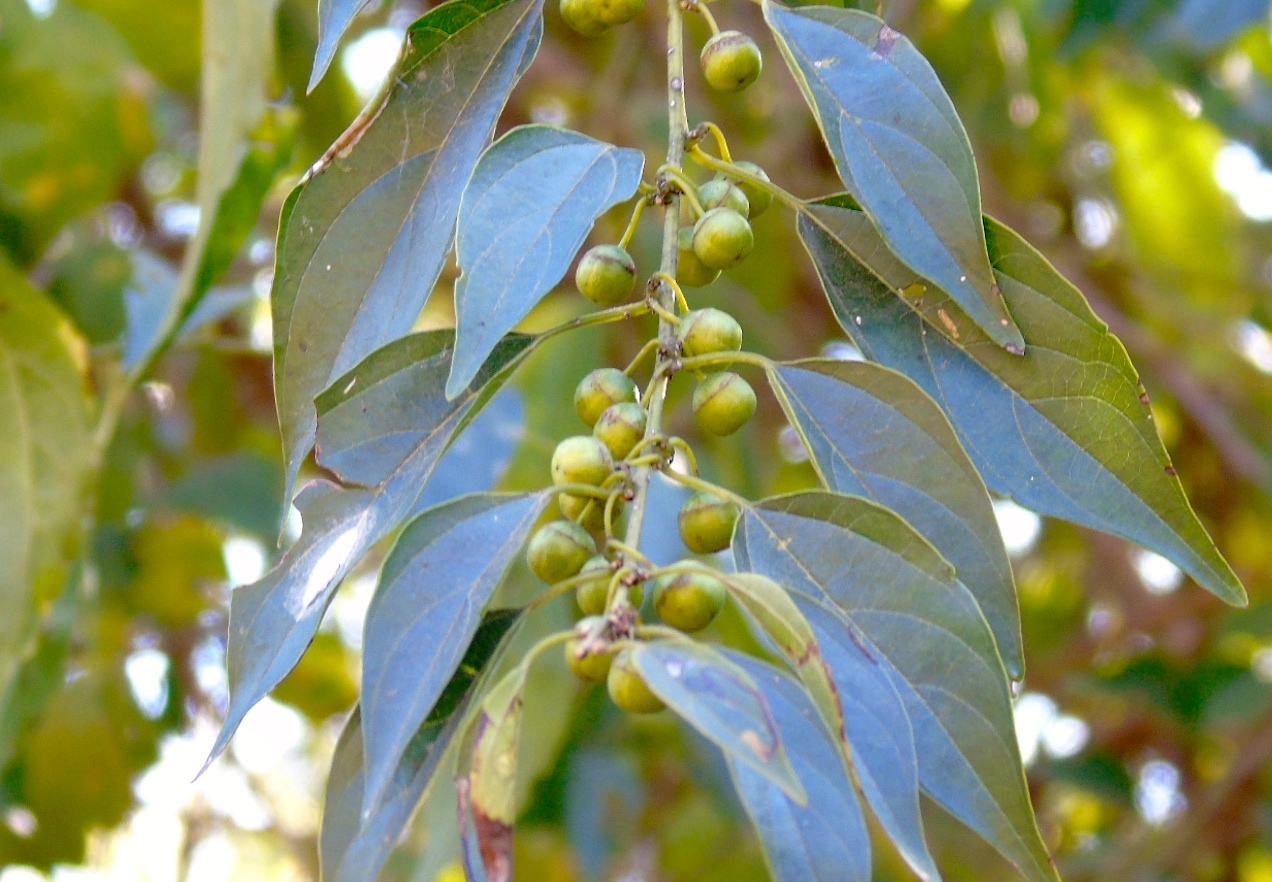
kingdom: Plantae
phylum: Tracheophyta
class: Magnoliopsida
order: Rosales
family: Rhamnaceae
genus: Colubrina
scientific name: Colubrina triflora
